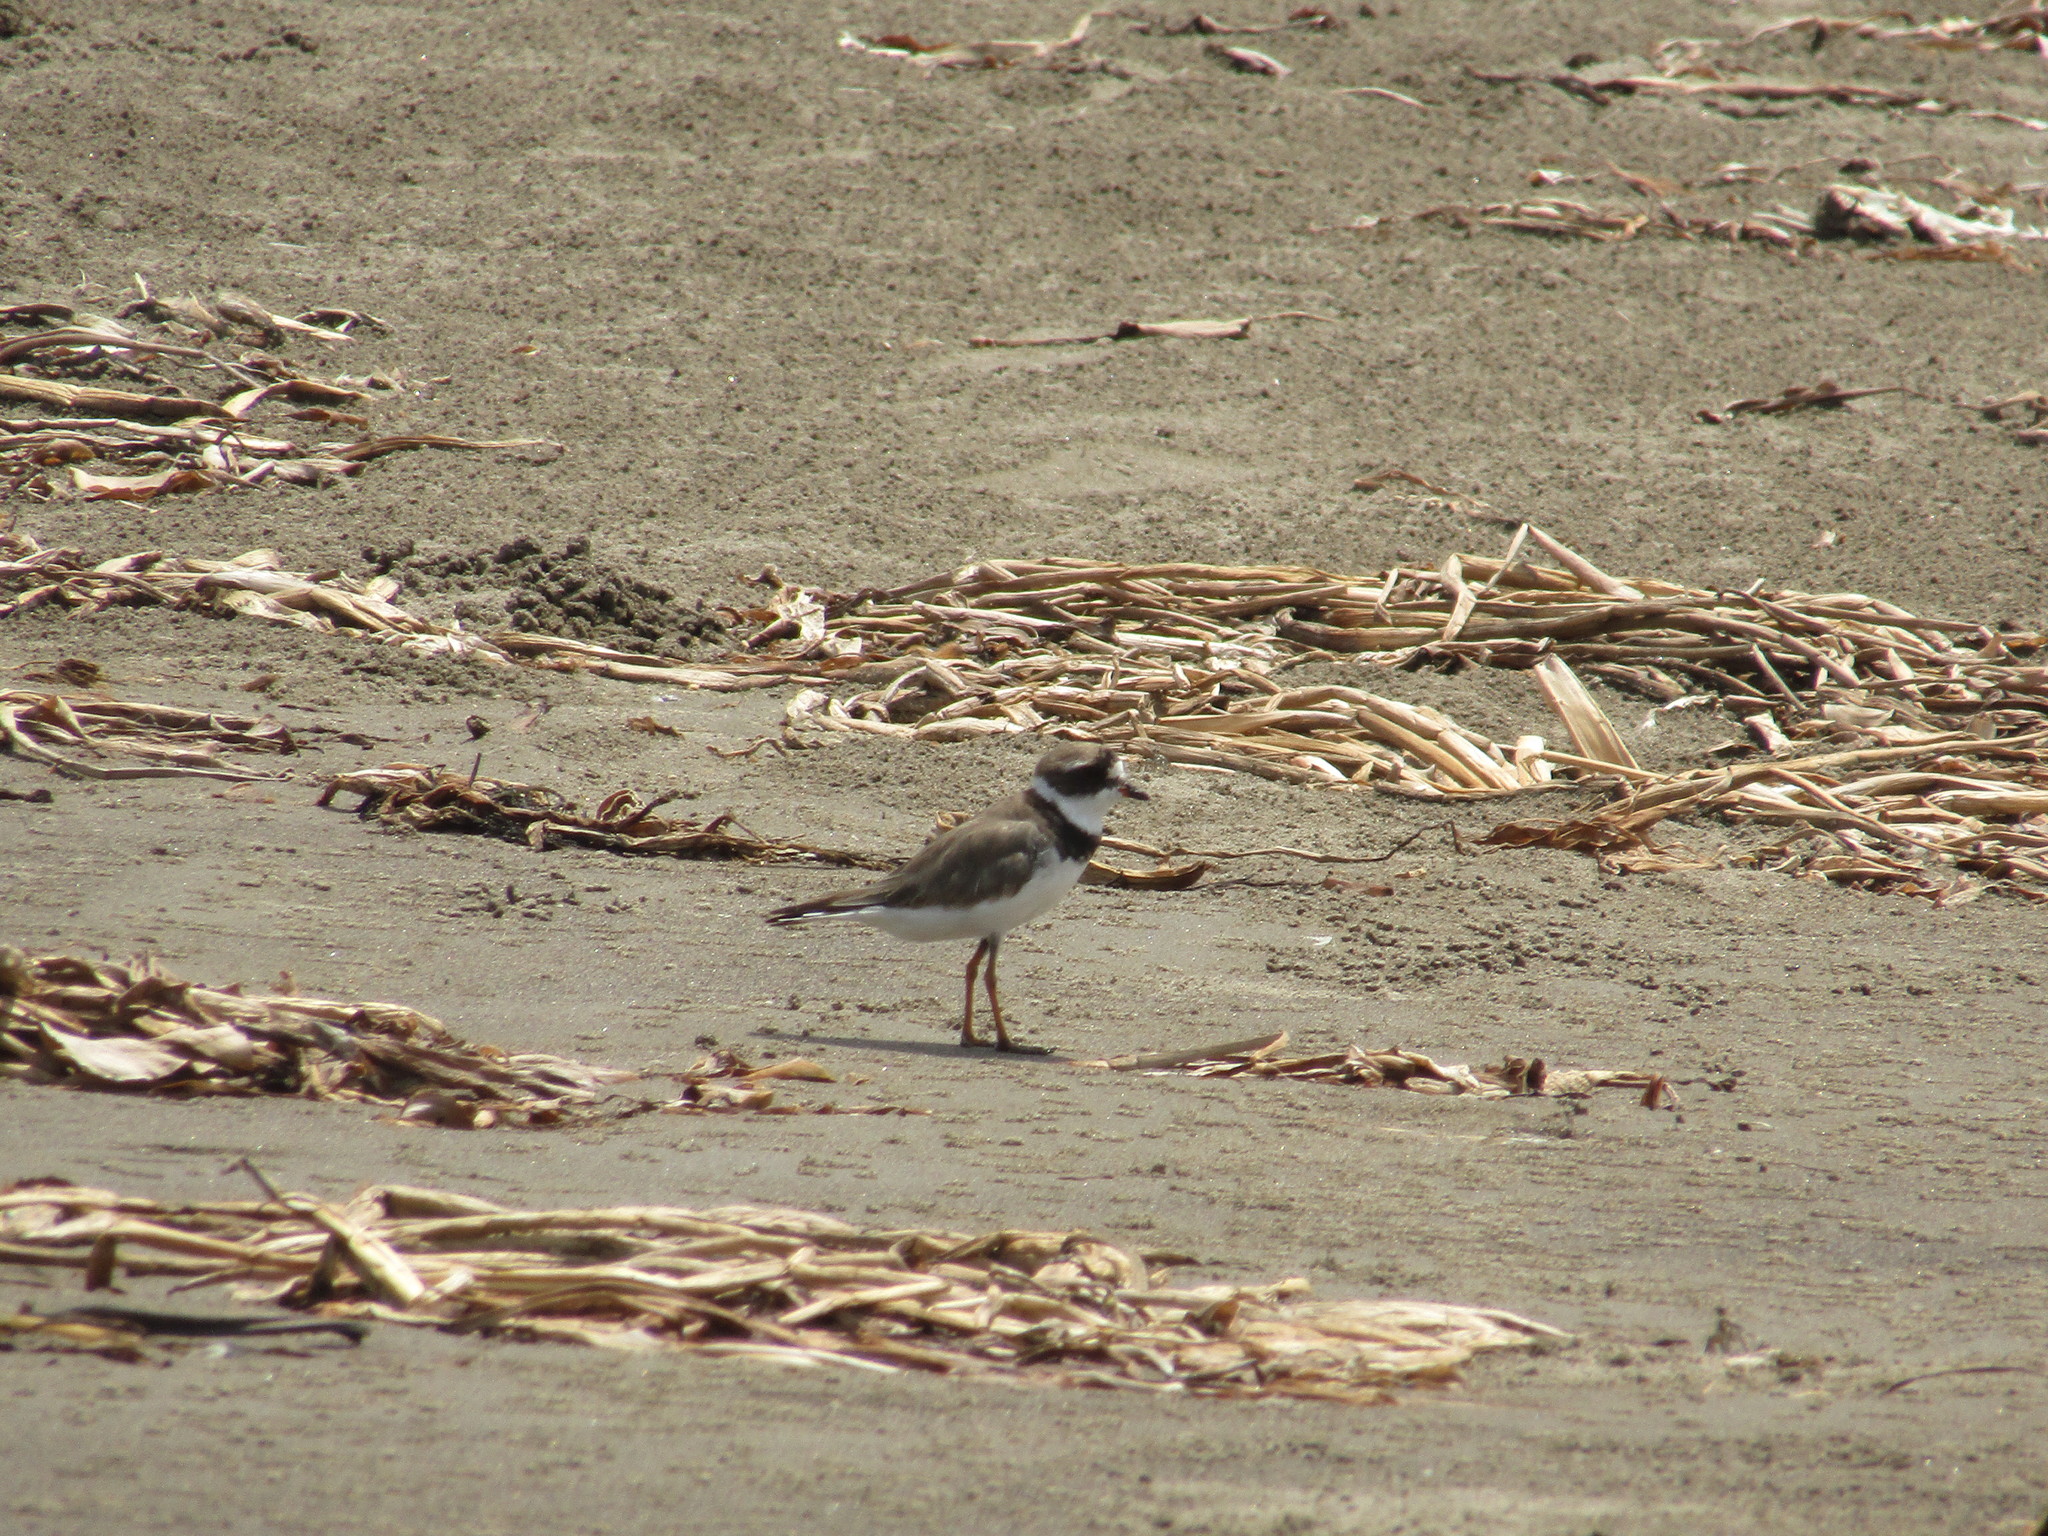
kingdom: Animalia
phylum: Chordata
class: Aves
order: Charadriiformes
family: Charadriidae
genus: Charadrius
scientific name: Charadrius semipalmatus
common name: Semipalmated plover
